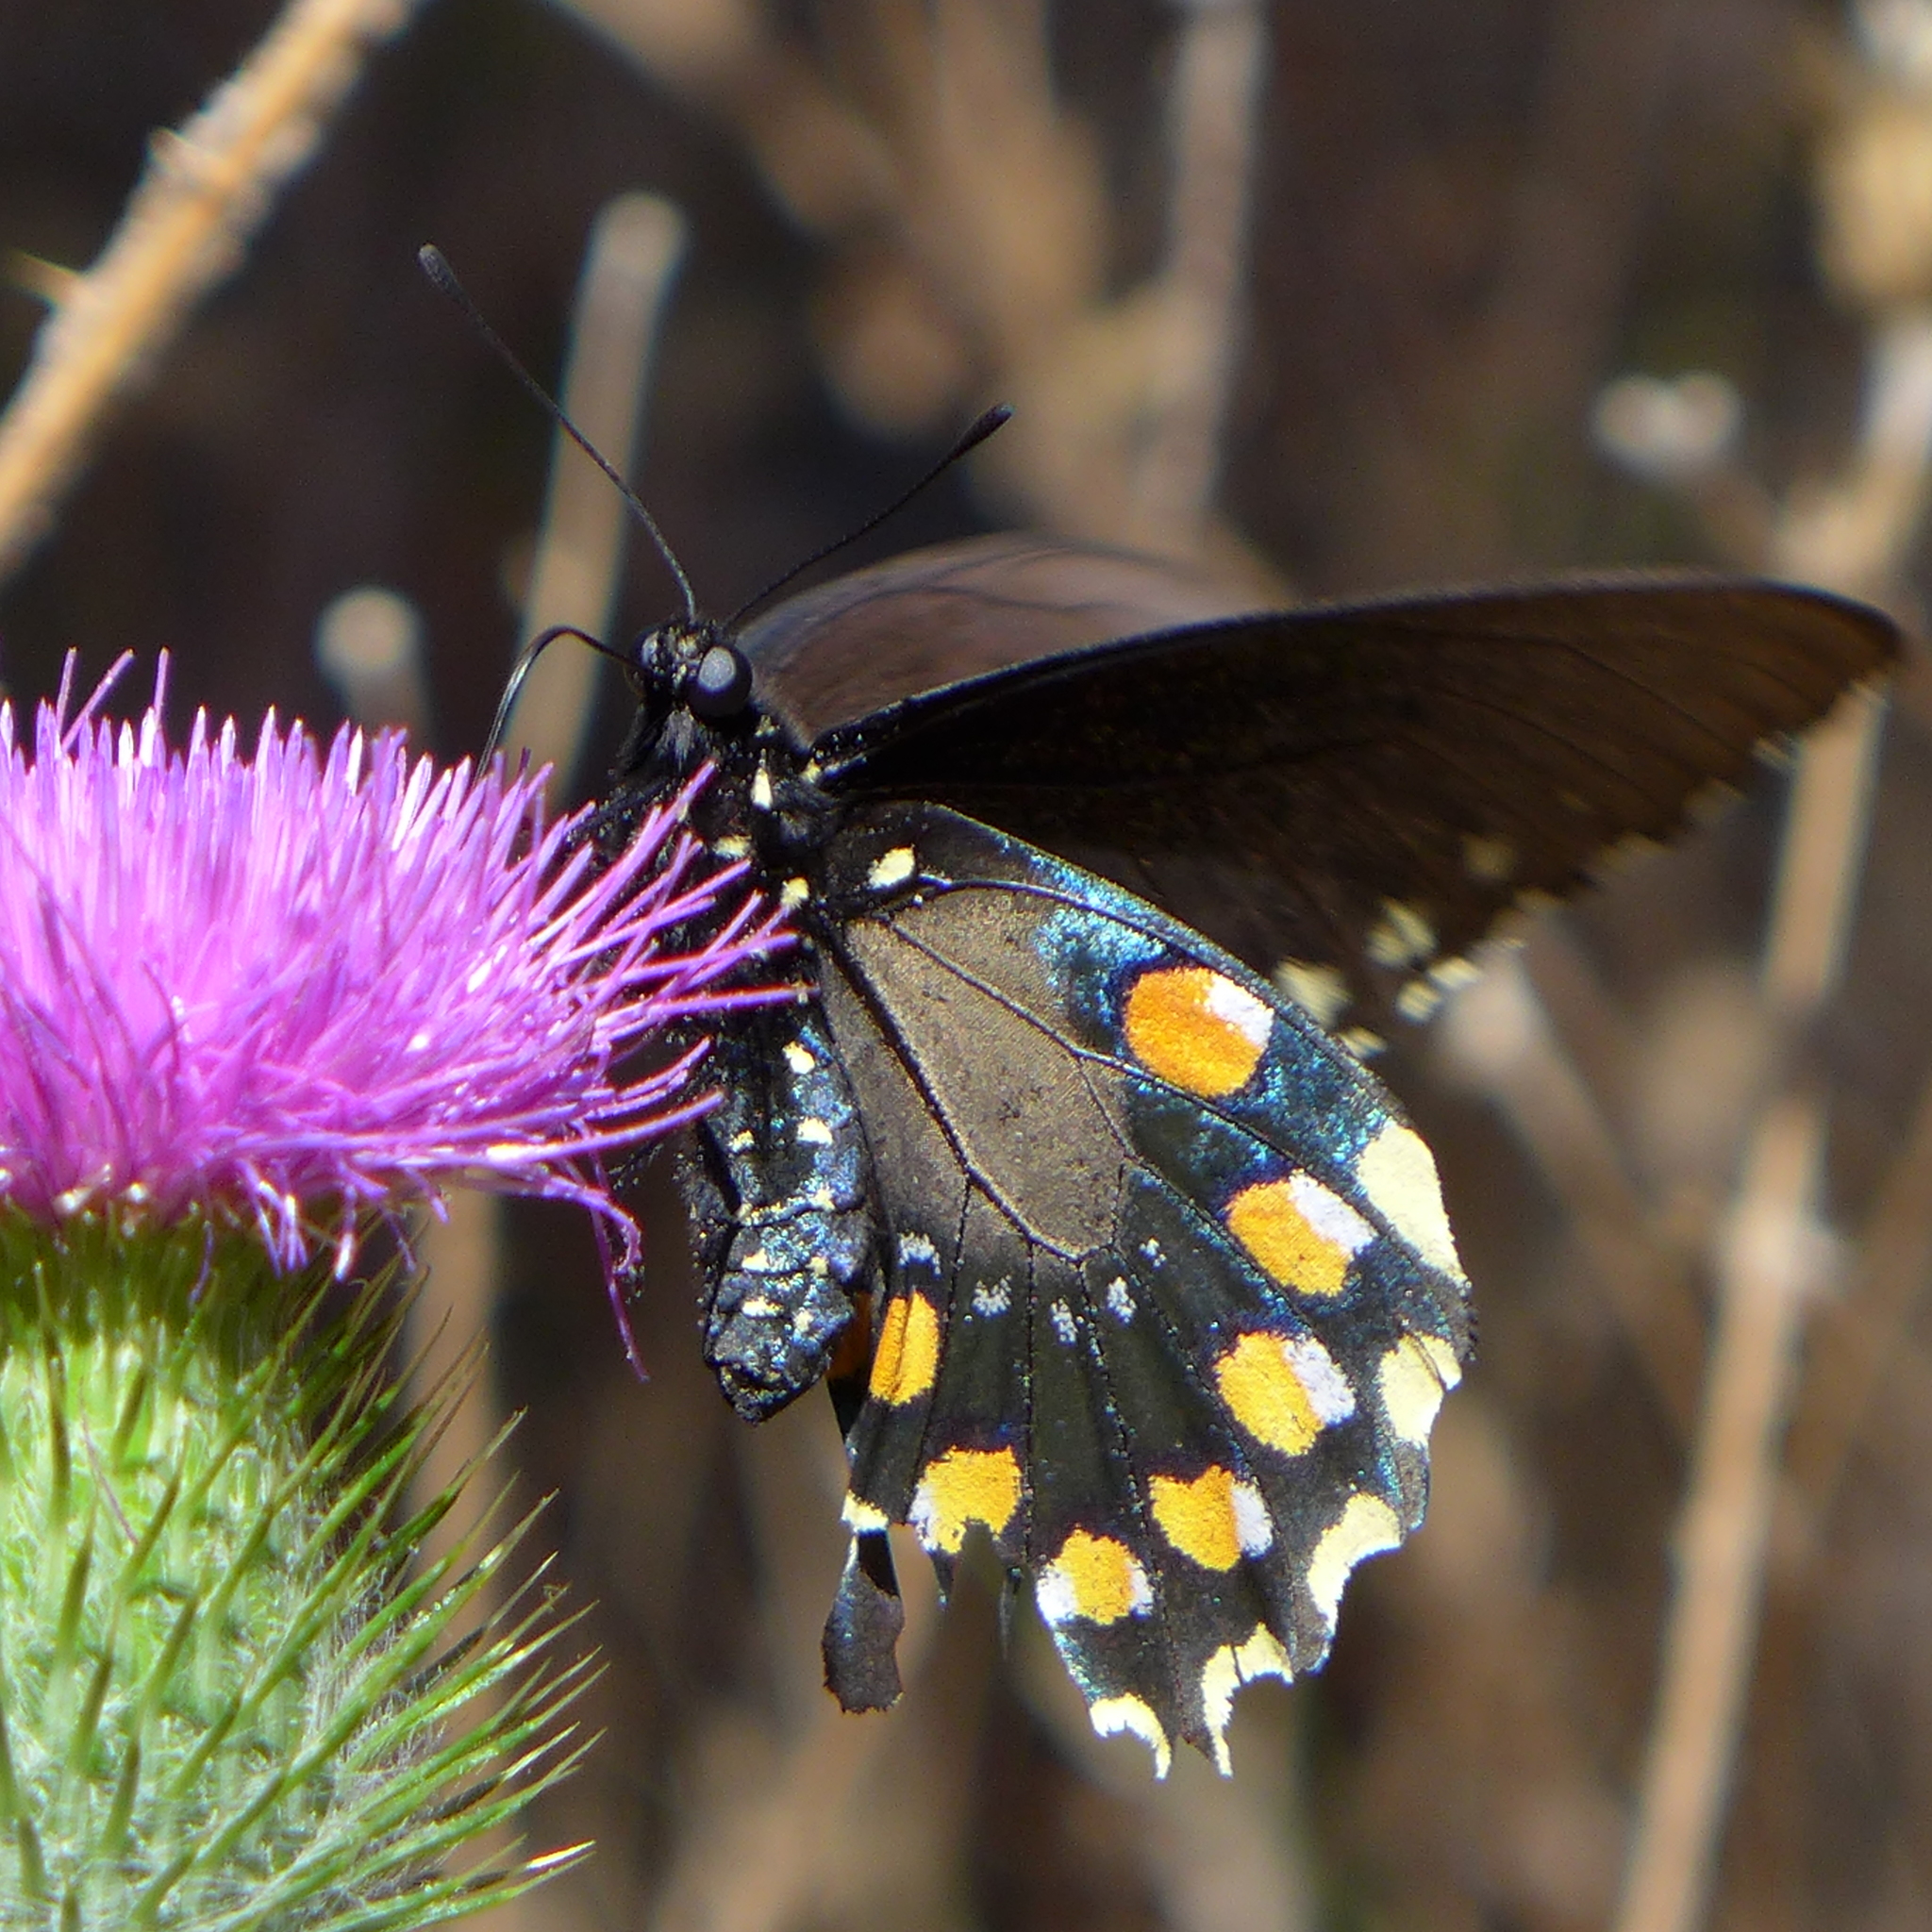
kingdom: Animalia
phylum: Arthropoda
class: Insecta
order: Lepidoptera
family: Papilionidae
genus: Battus
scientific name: Battus philenor
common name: Pipevine swallowtail
